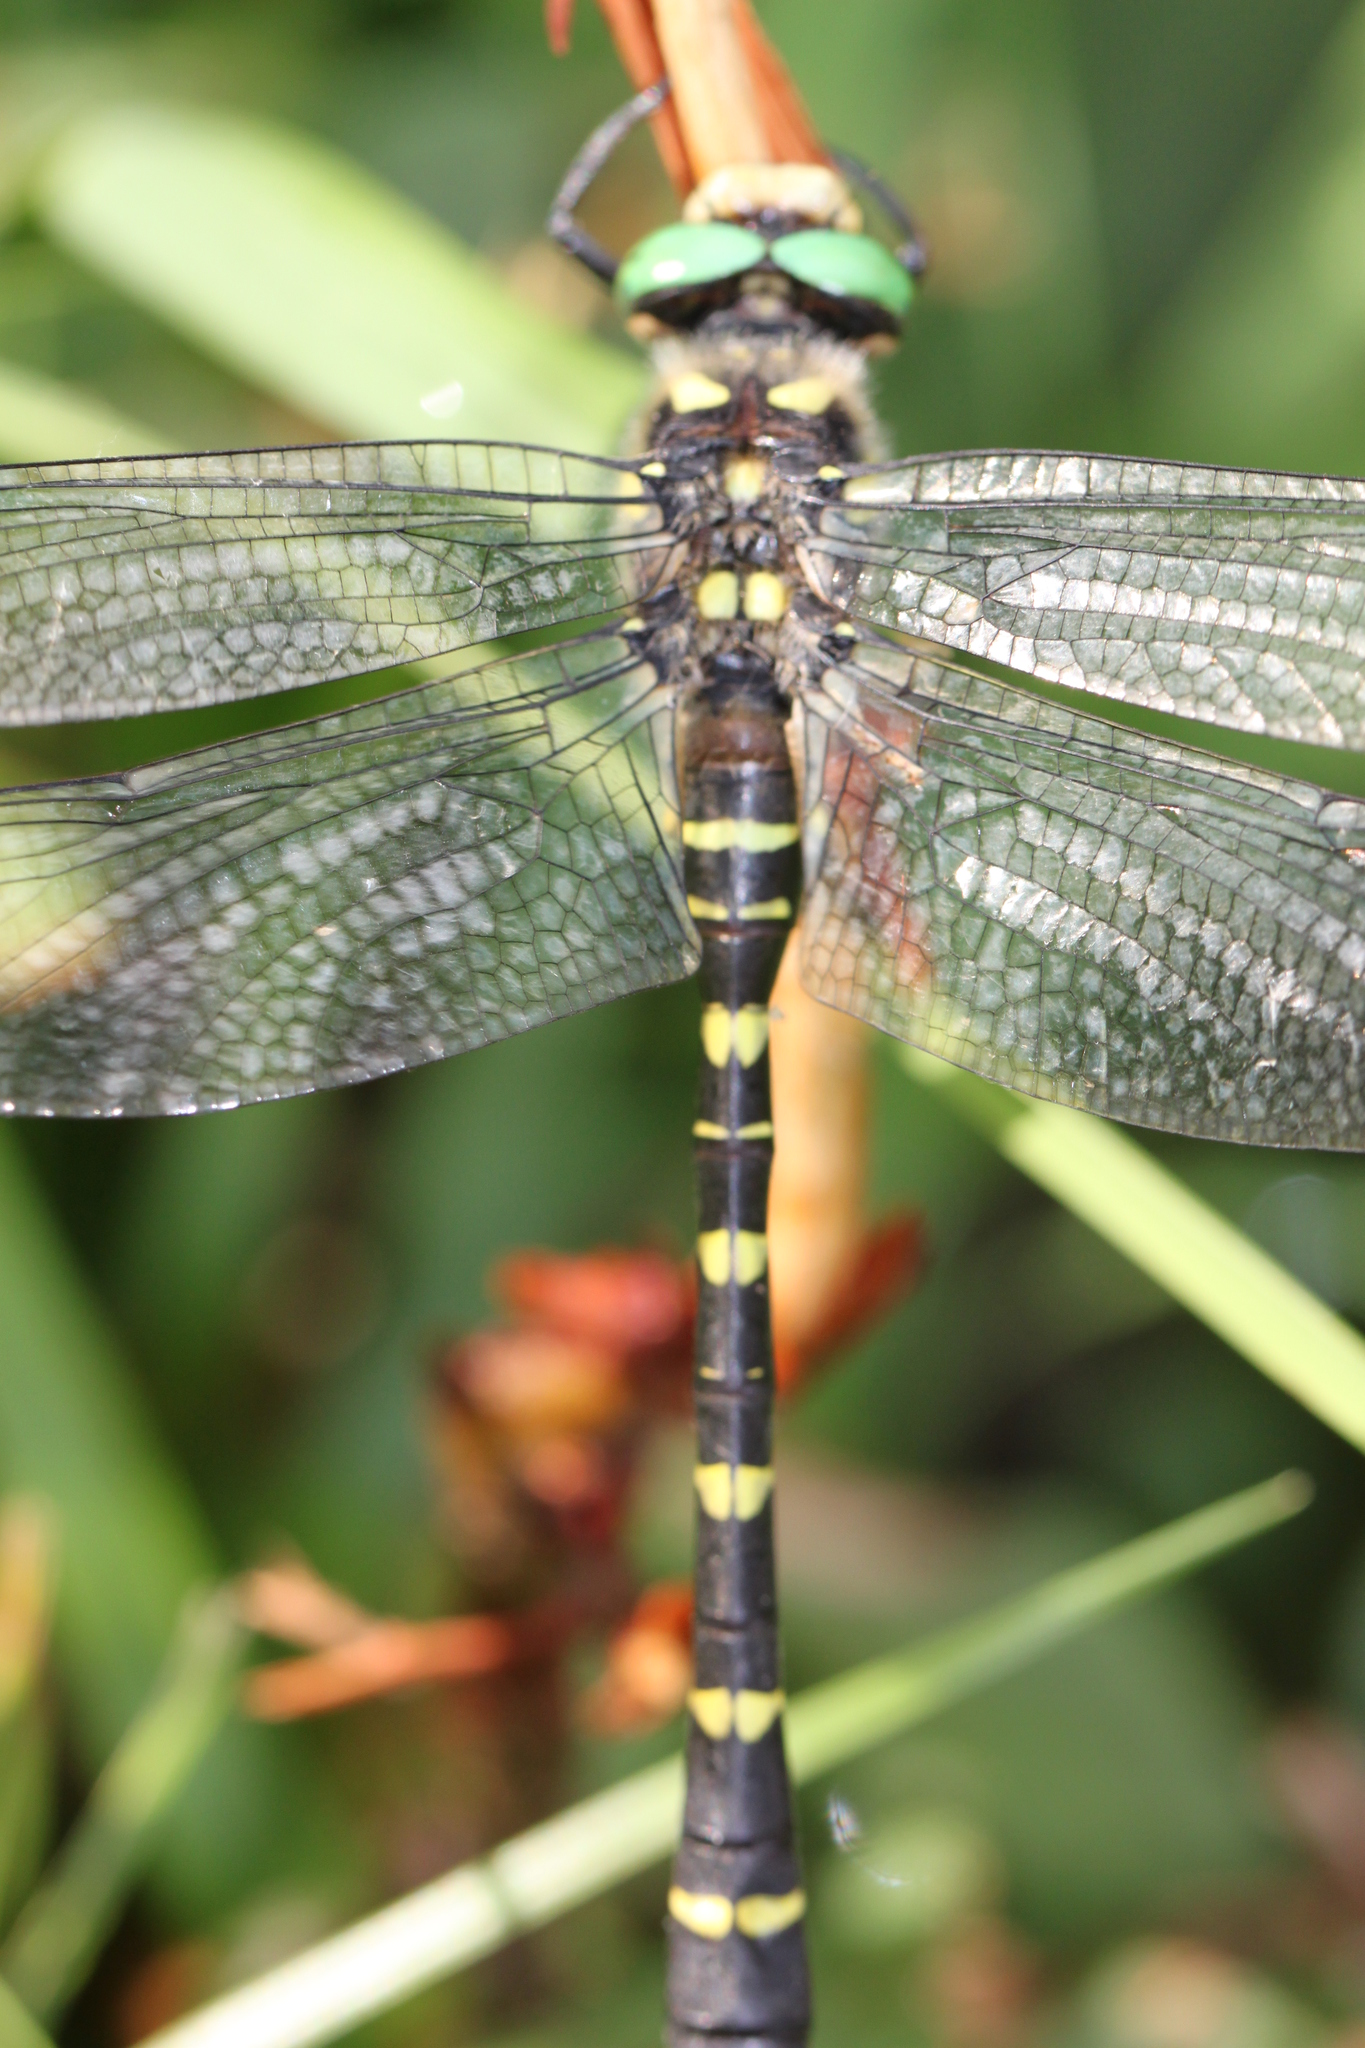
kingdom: Animalia
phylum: Arthropoda
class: Insecta
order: Odonata
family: Cordulegastridae
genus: Cordulegaster
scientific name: Cordulegaster bidentata
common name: Sombre goldenring
